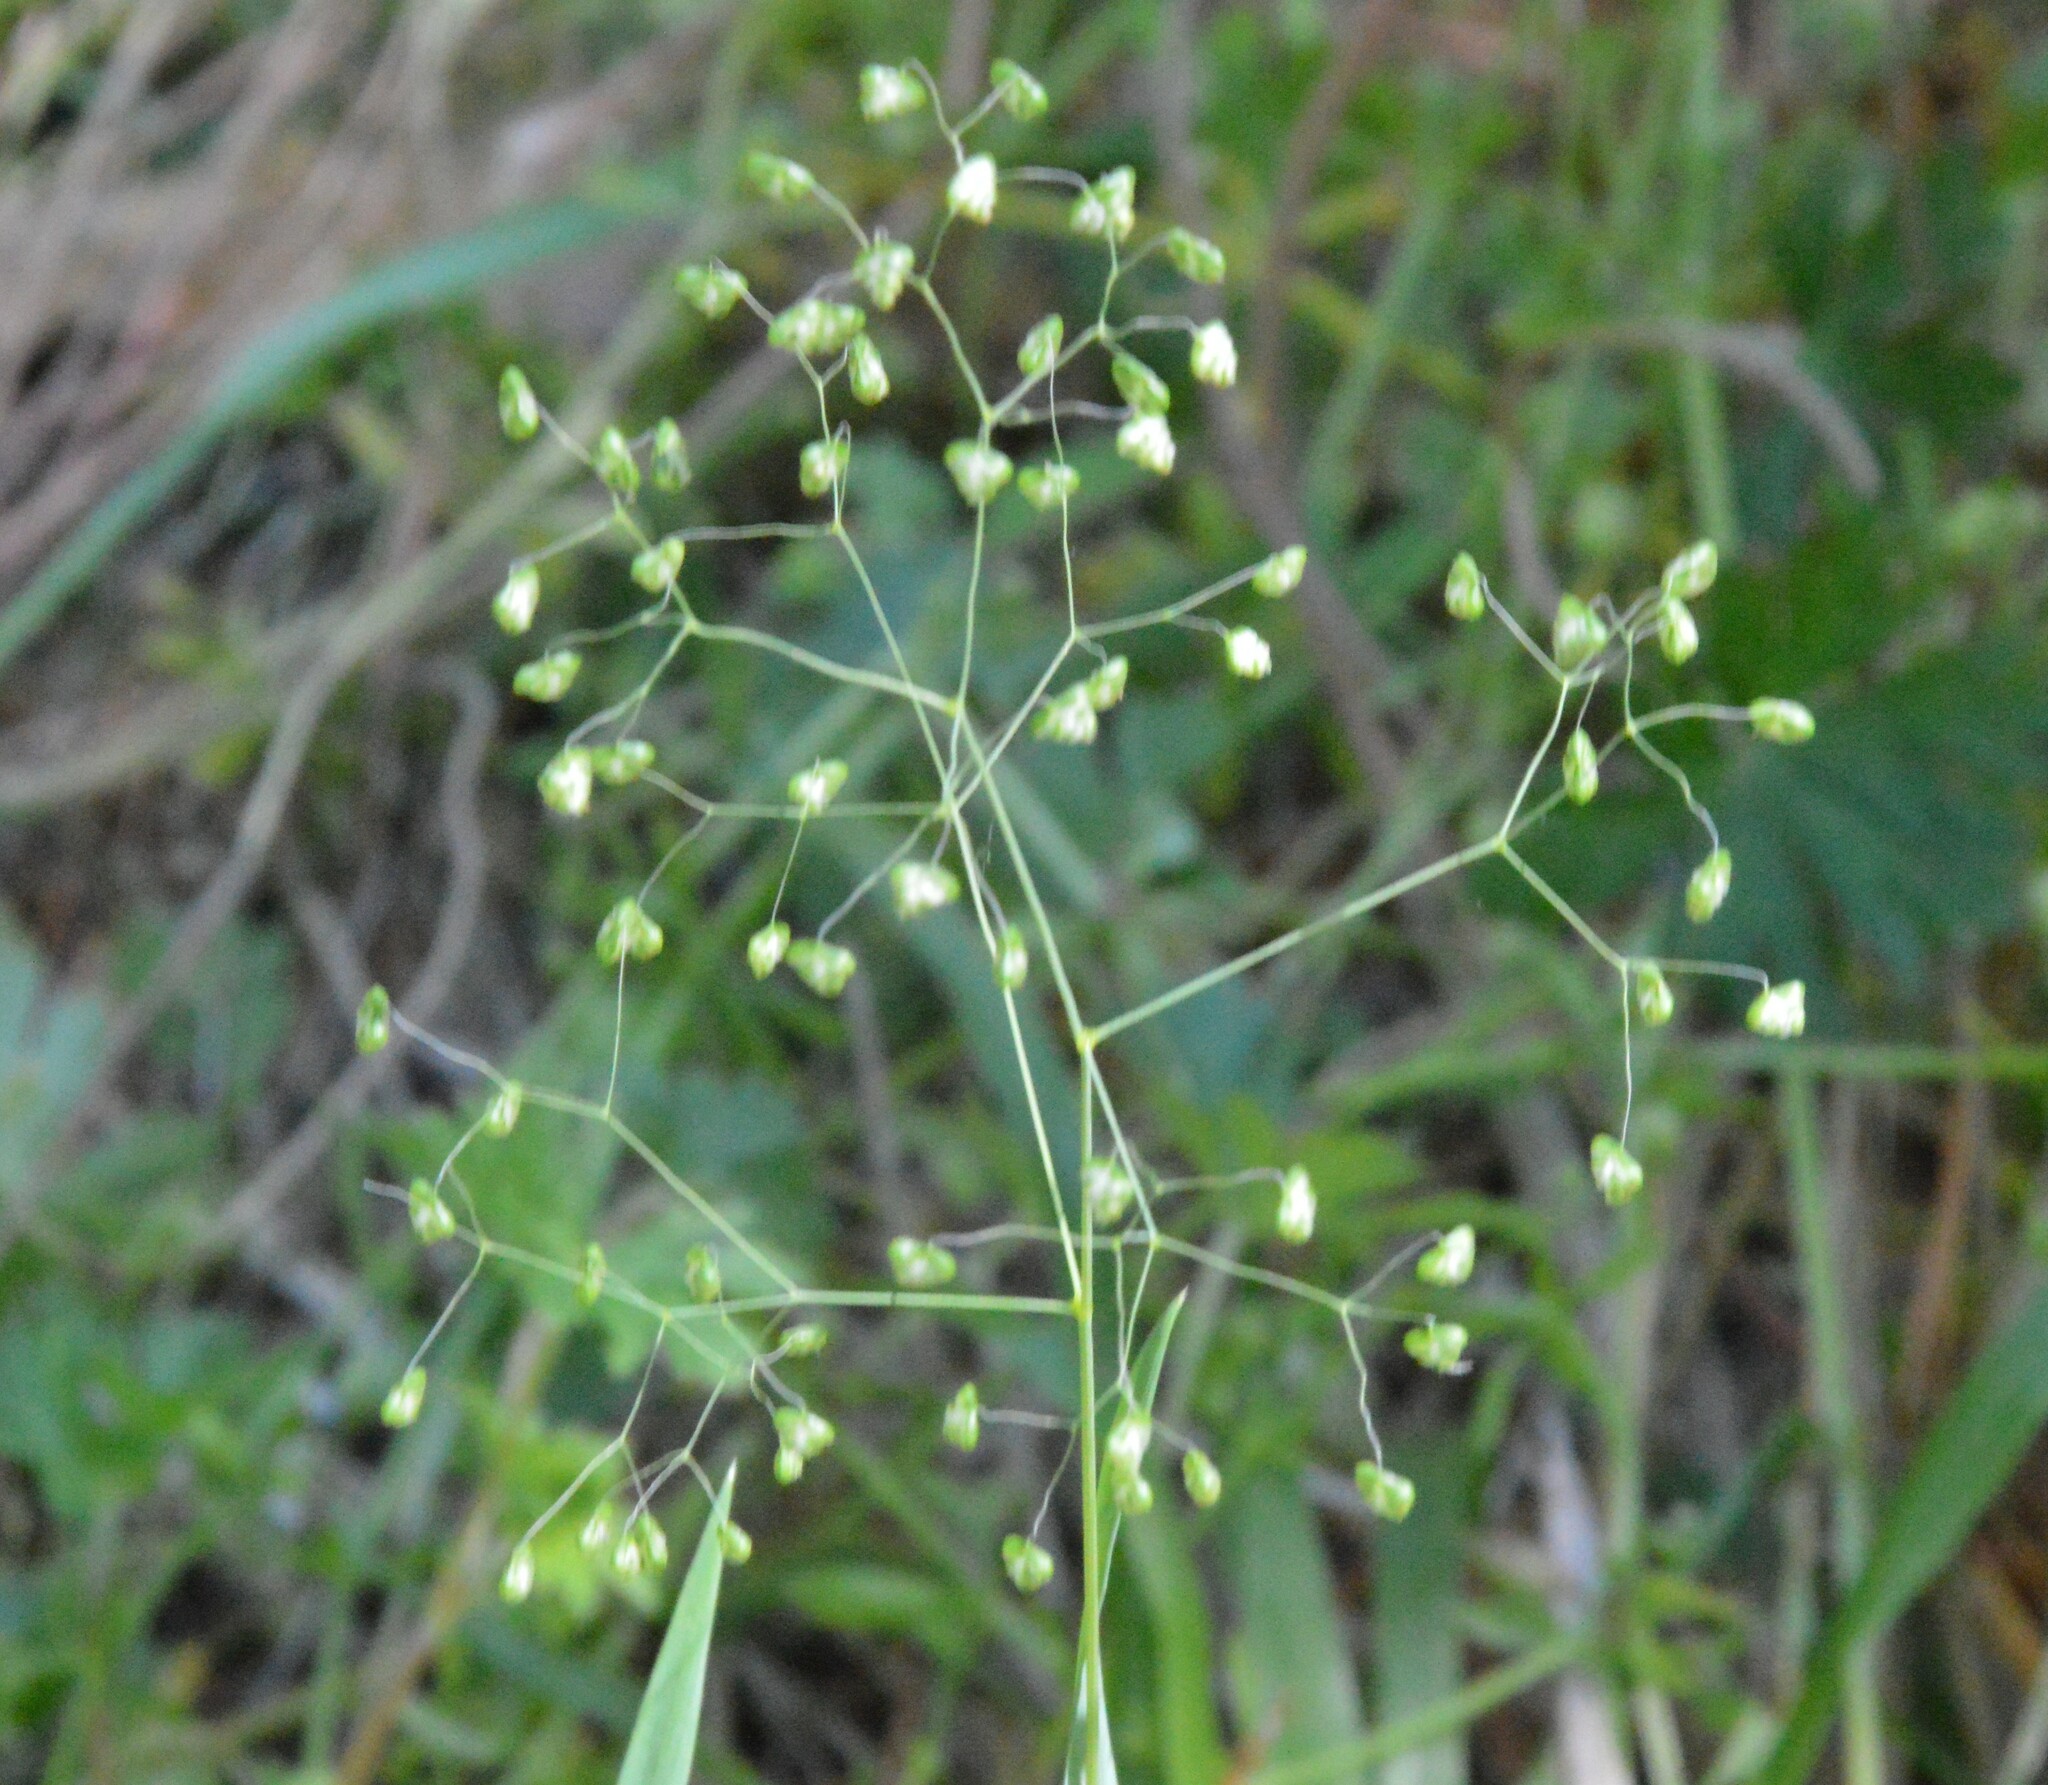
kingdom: Plantae
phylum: Tracheophyta
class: Liliopsida
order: Poales
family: Poaceae
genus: Briza
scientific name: Briza minor
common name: Lesser quaking-grass
